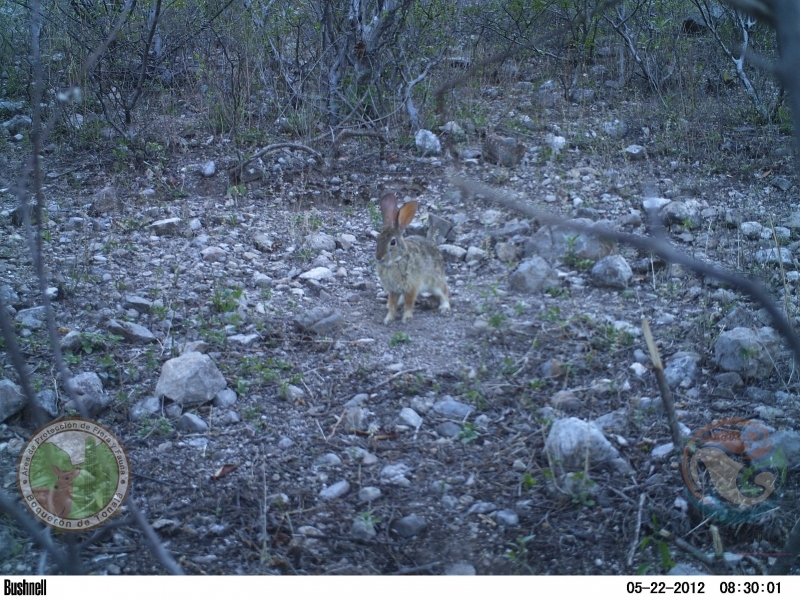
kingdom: Animalia
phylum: Chordata
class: Mammalia
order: Lagomorpha
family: Leporidae
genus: Sylvilagus
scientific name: Sylvilagus cunicularius
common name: Mexican cottontail
